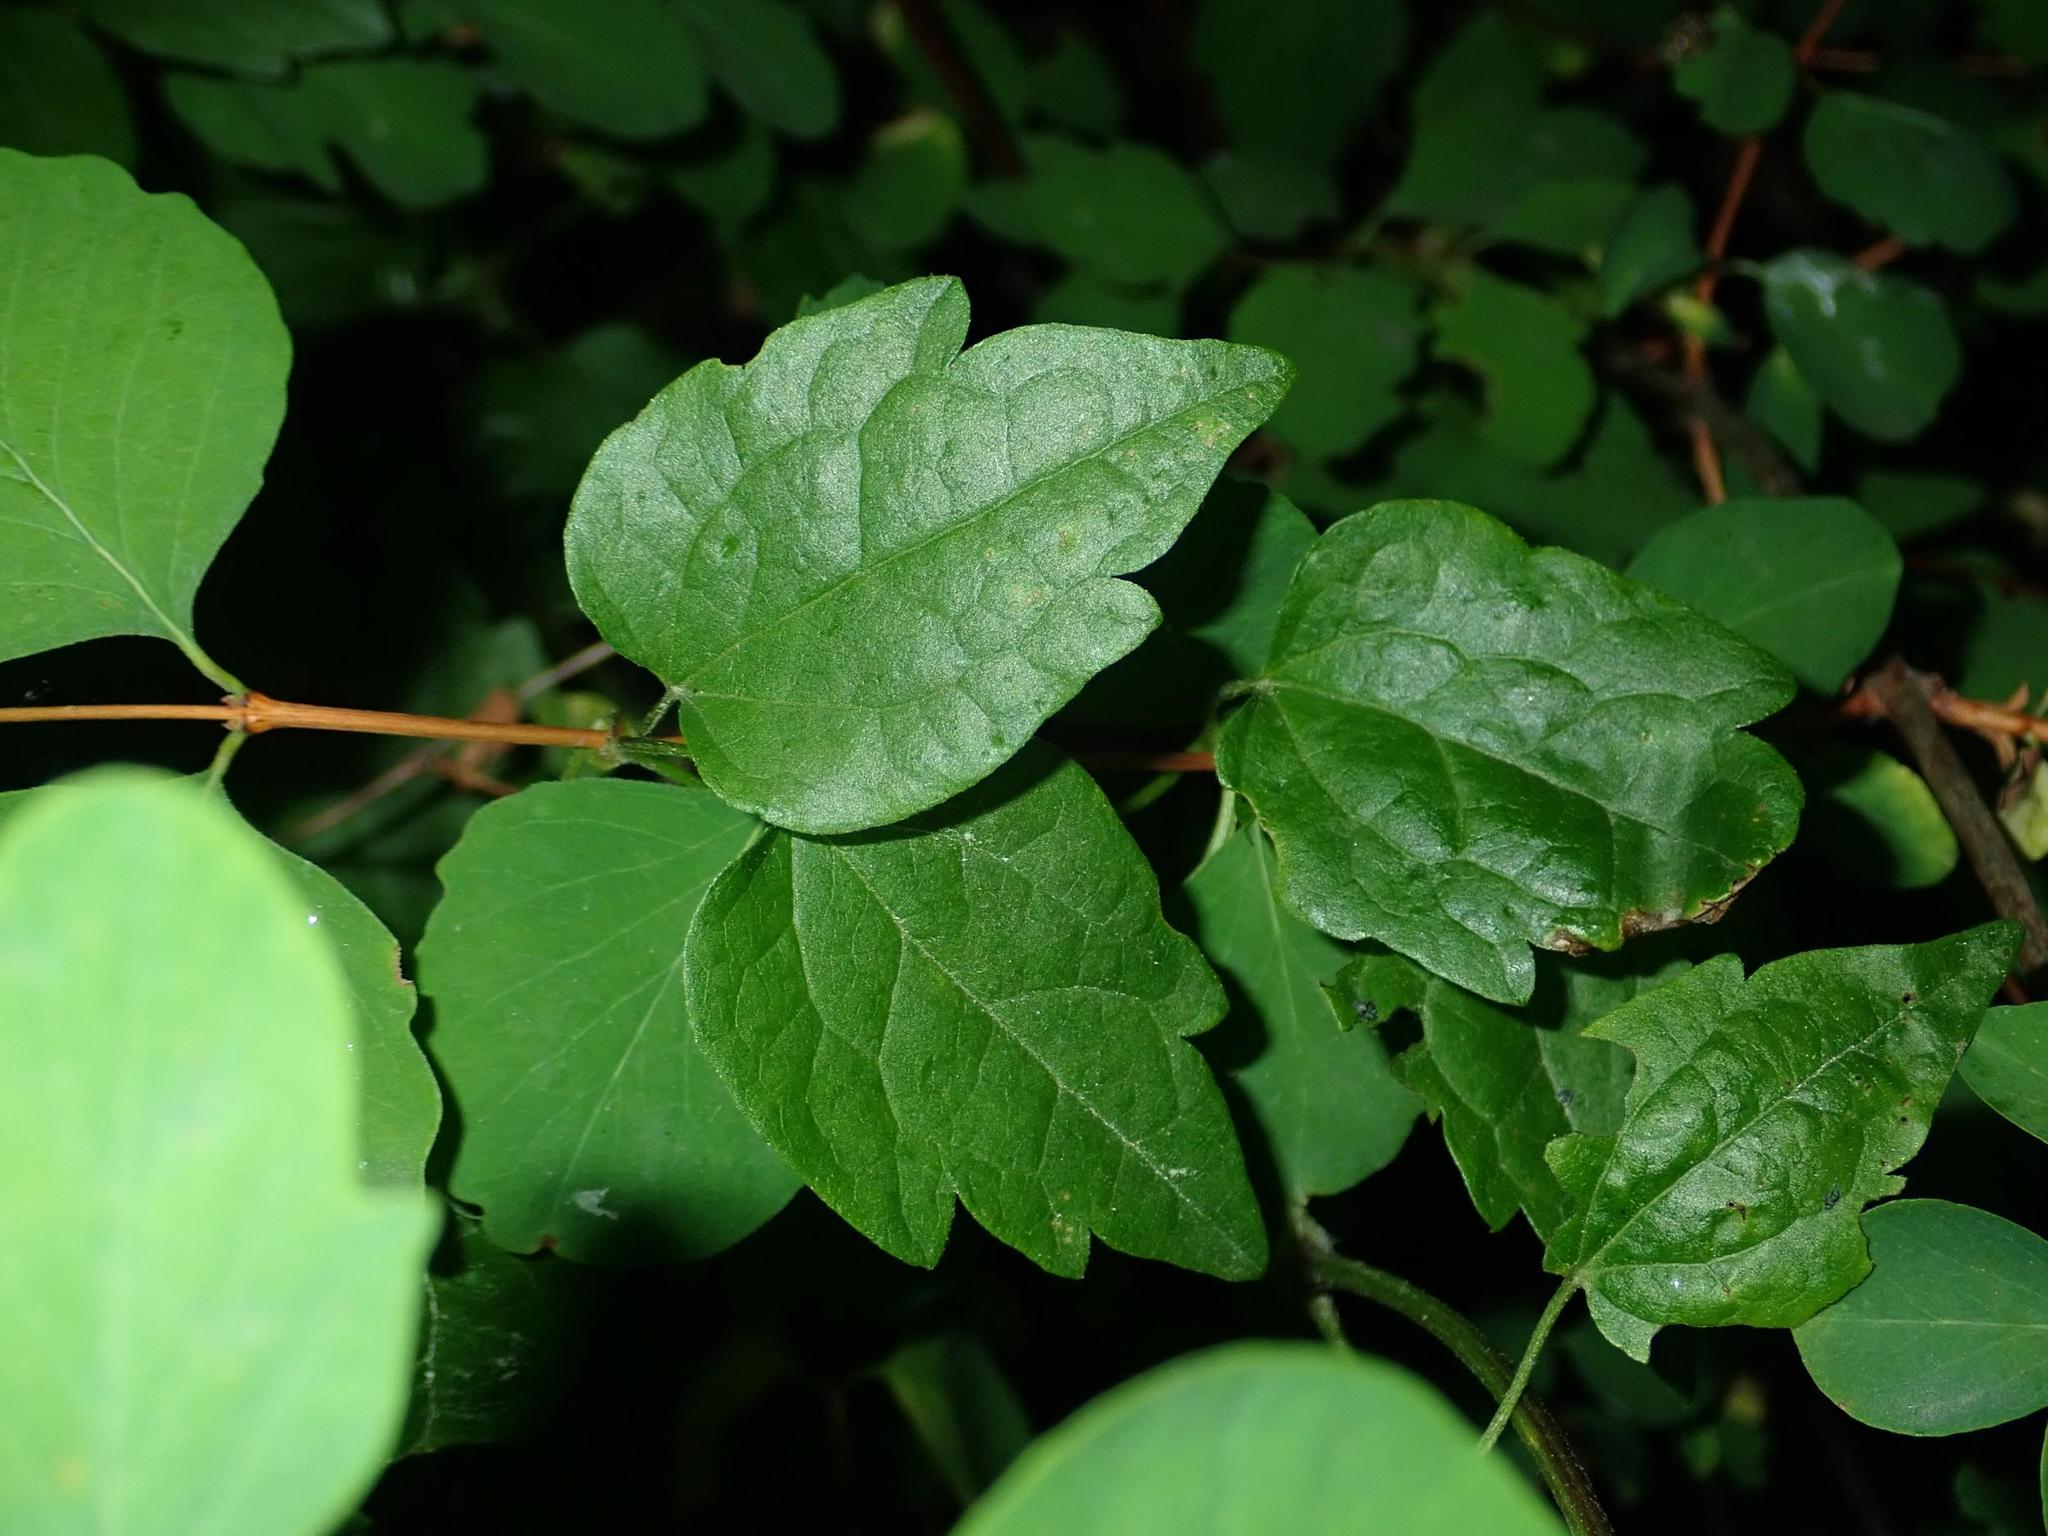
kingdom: Plantae
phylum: Tracheophyta
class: Magnoliopsida
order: Ranunculales
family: Ranunculaceae
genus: Clematis
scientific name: Clematis vitalba
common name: Evergreen clematis
